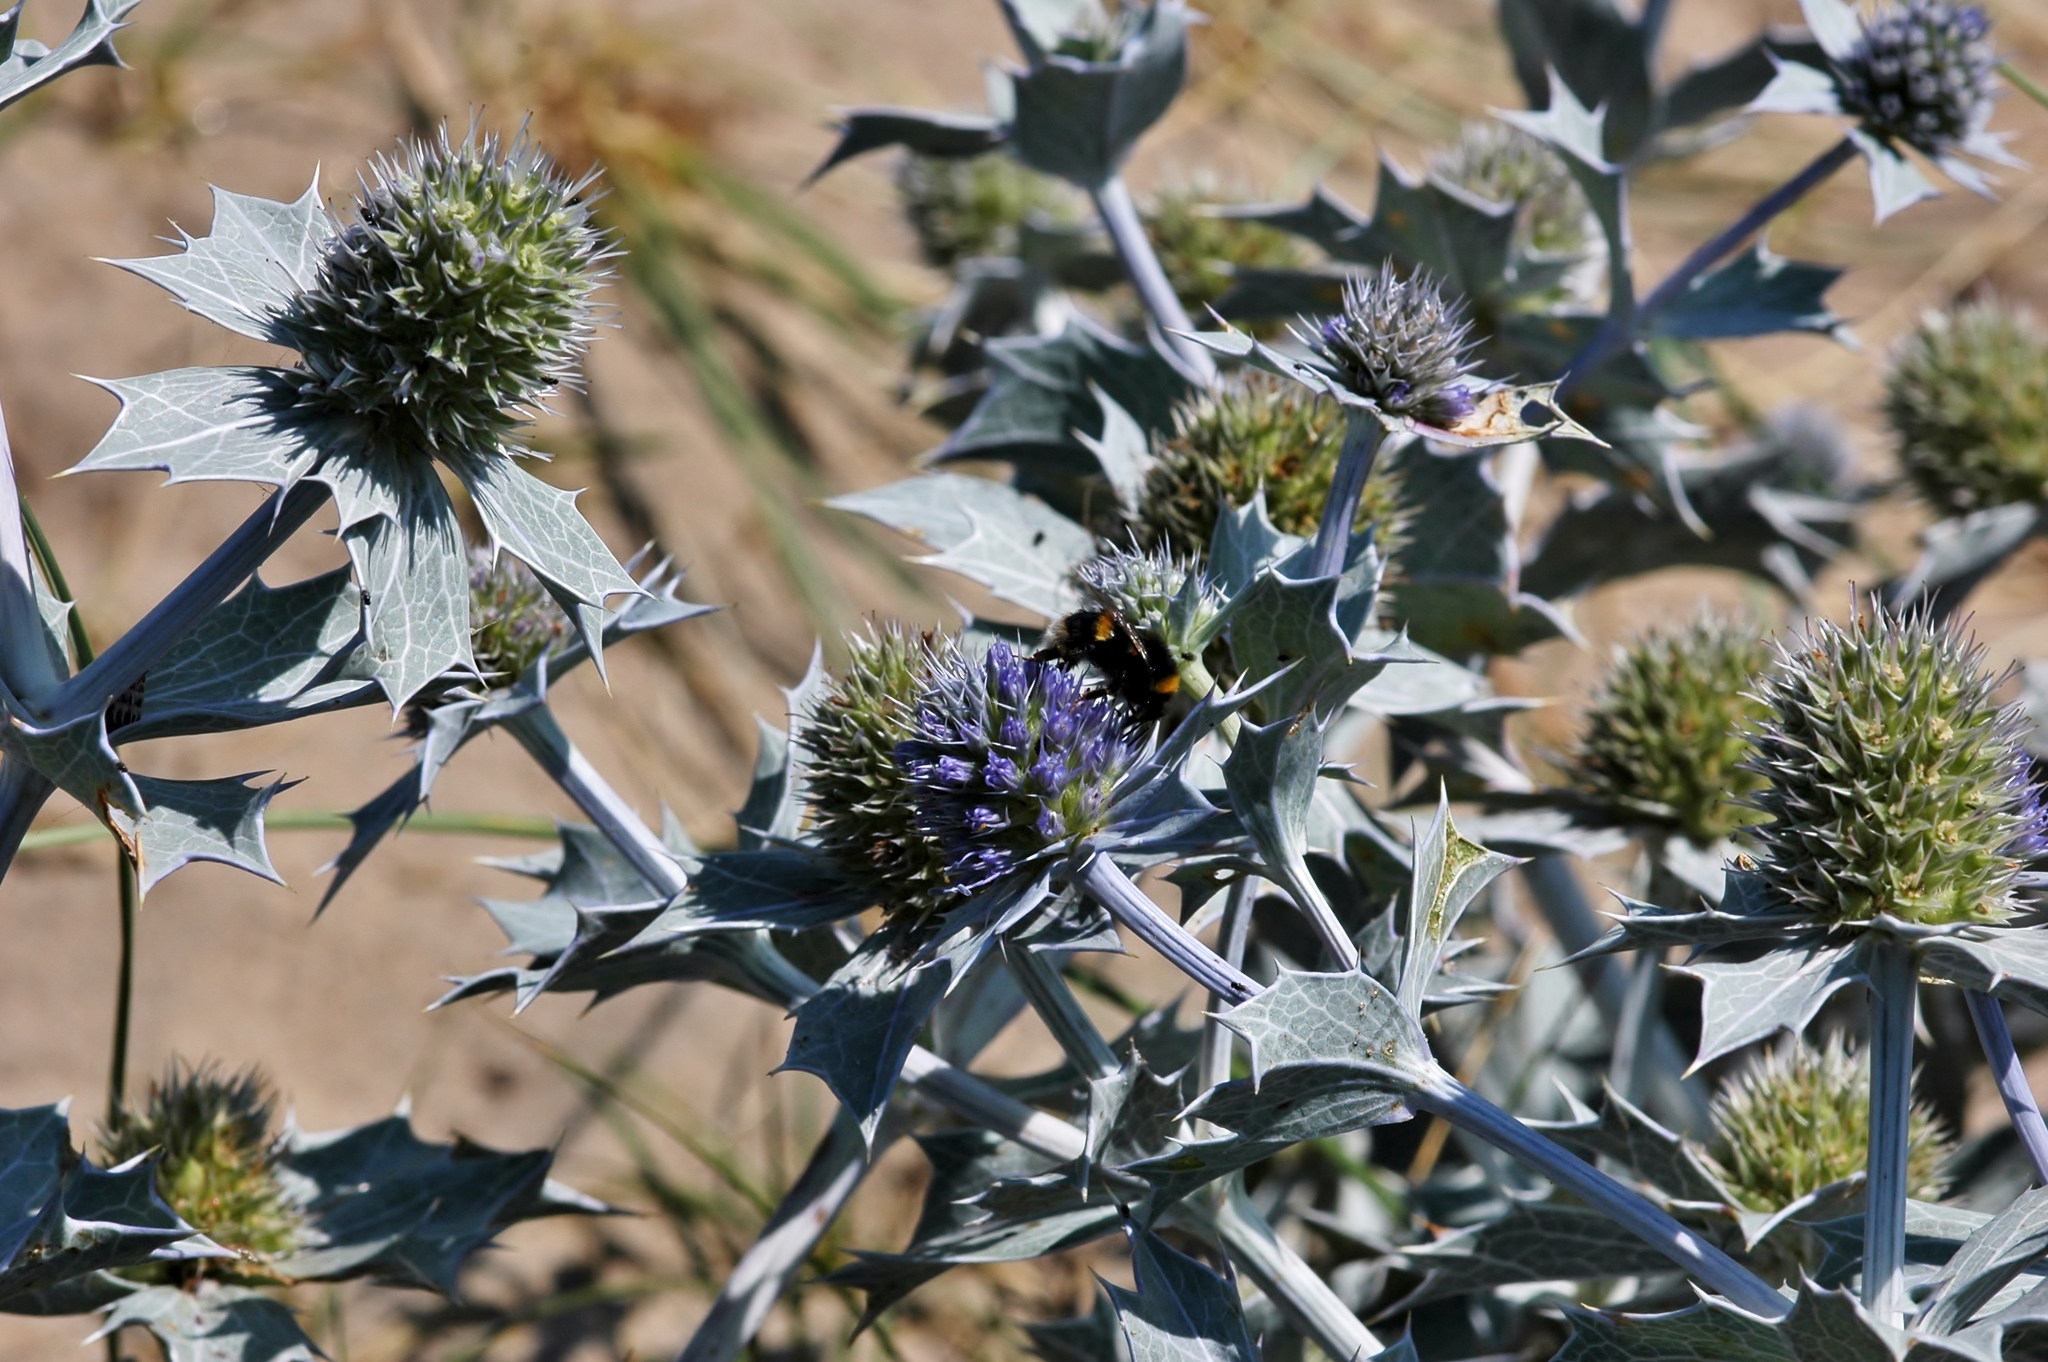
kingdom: Plantae
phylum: Tracheophyta
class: Magnoliopsida
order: Apiales
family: Apiaceae
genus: Eryngium
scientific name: Eryngium maritimum
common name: Sea-holly
